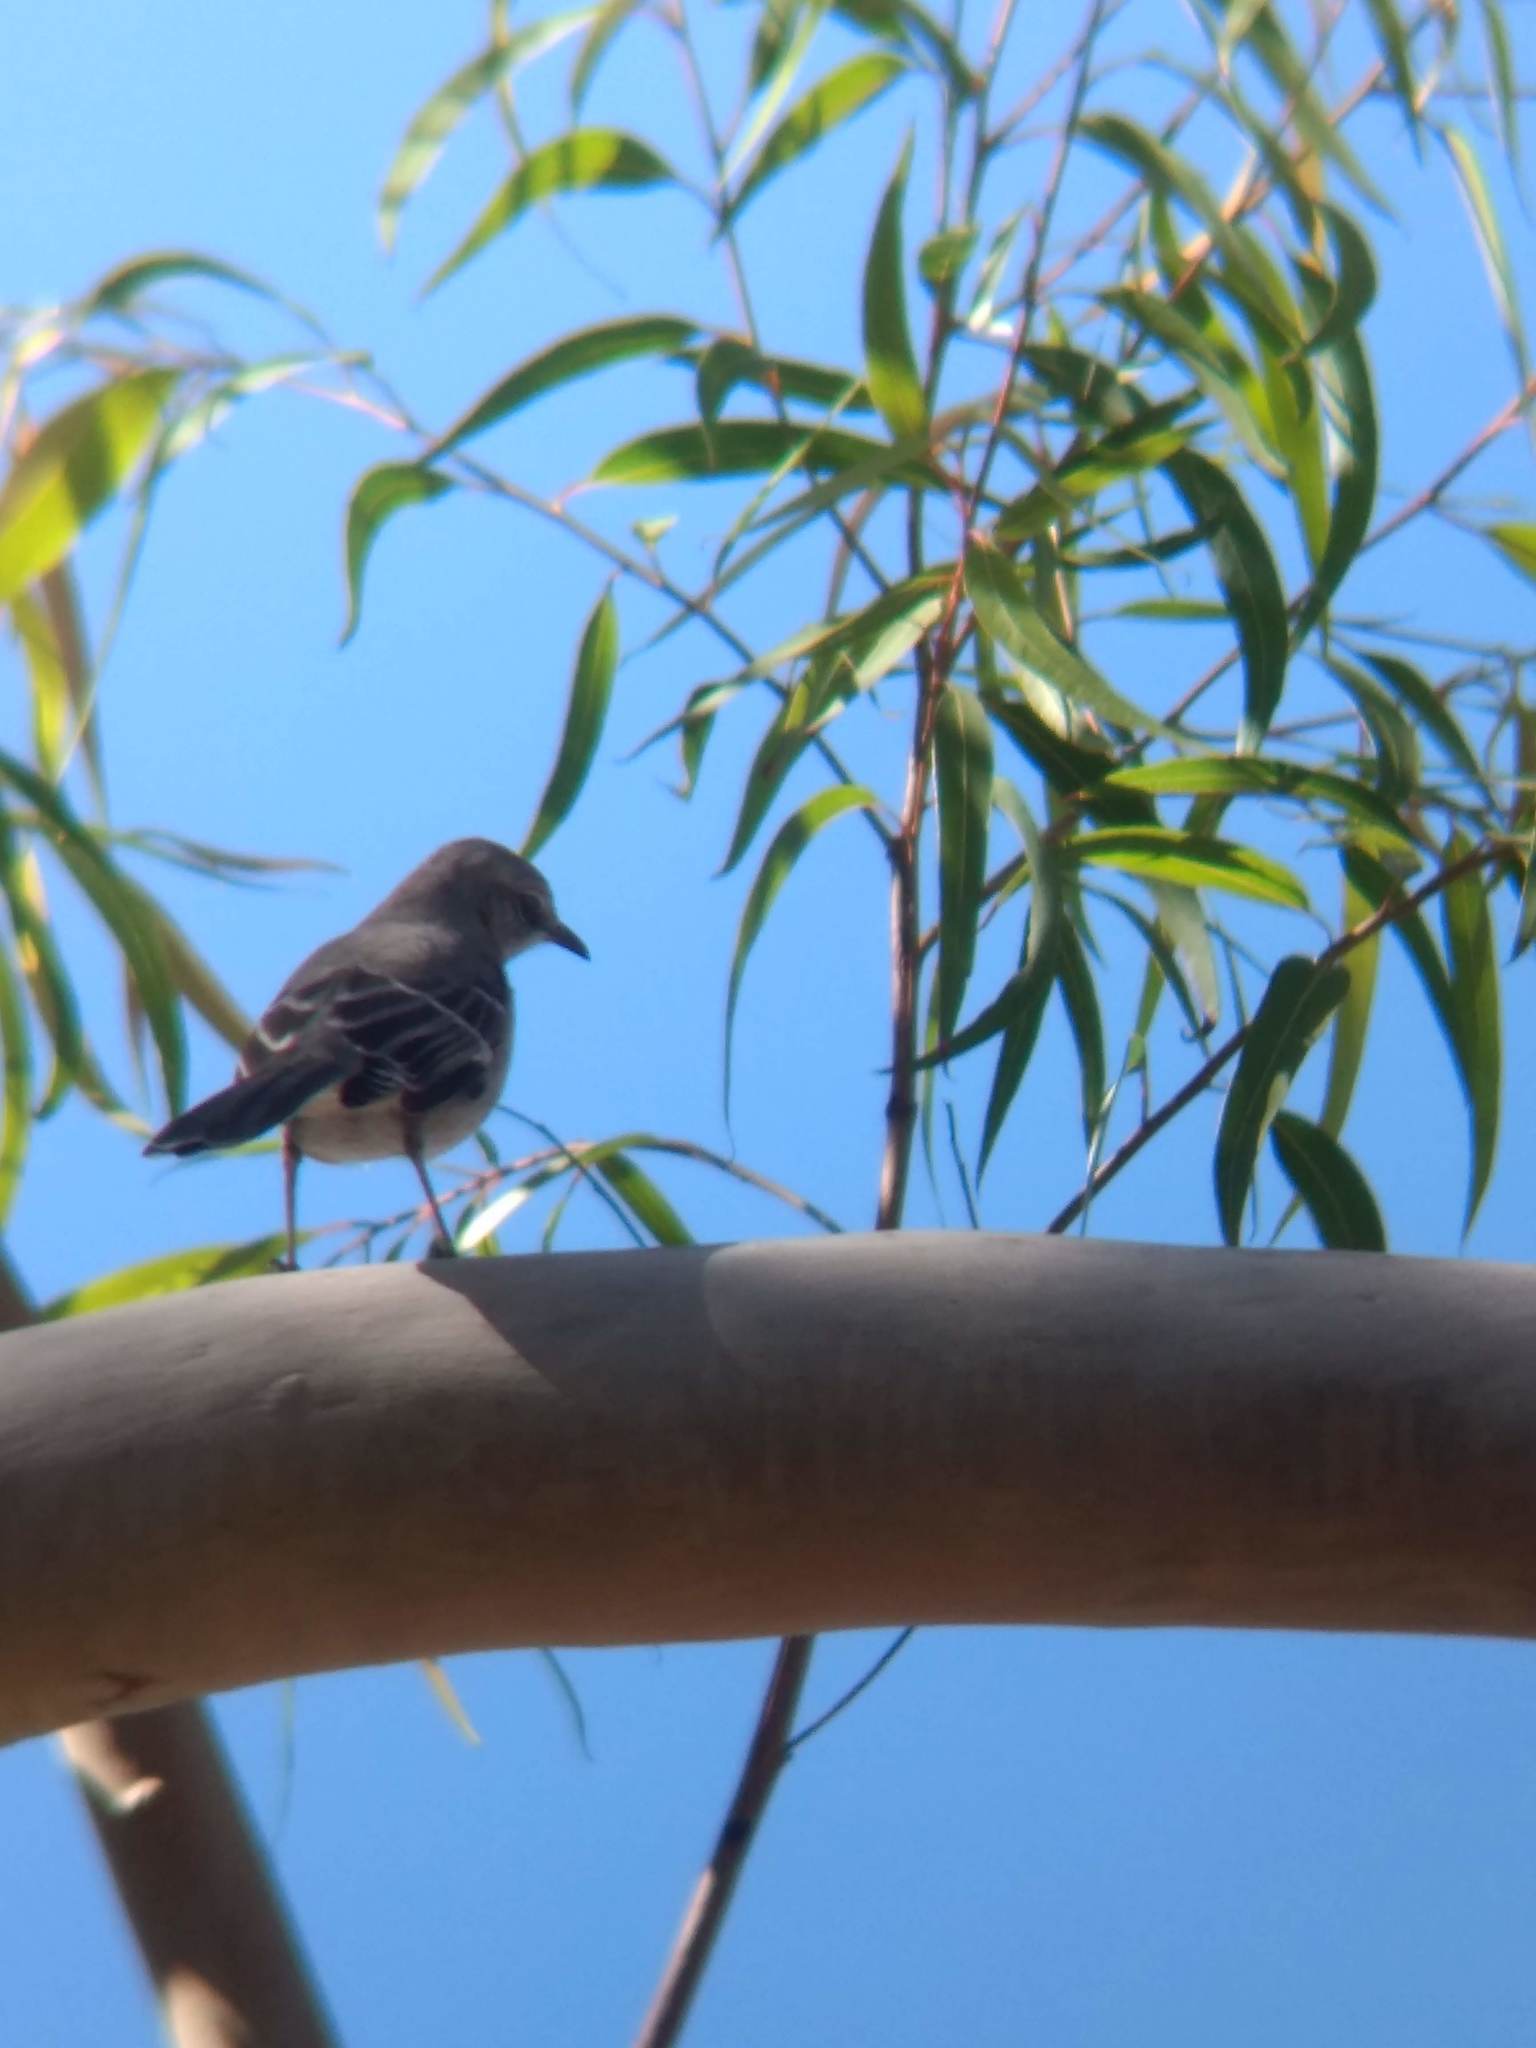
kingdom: Animalia
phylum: Chordata
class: Aves
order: Passeriformes
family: Mimidae
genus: Mimus
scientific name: Mimus polyglottos
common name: Northern mockingbird
